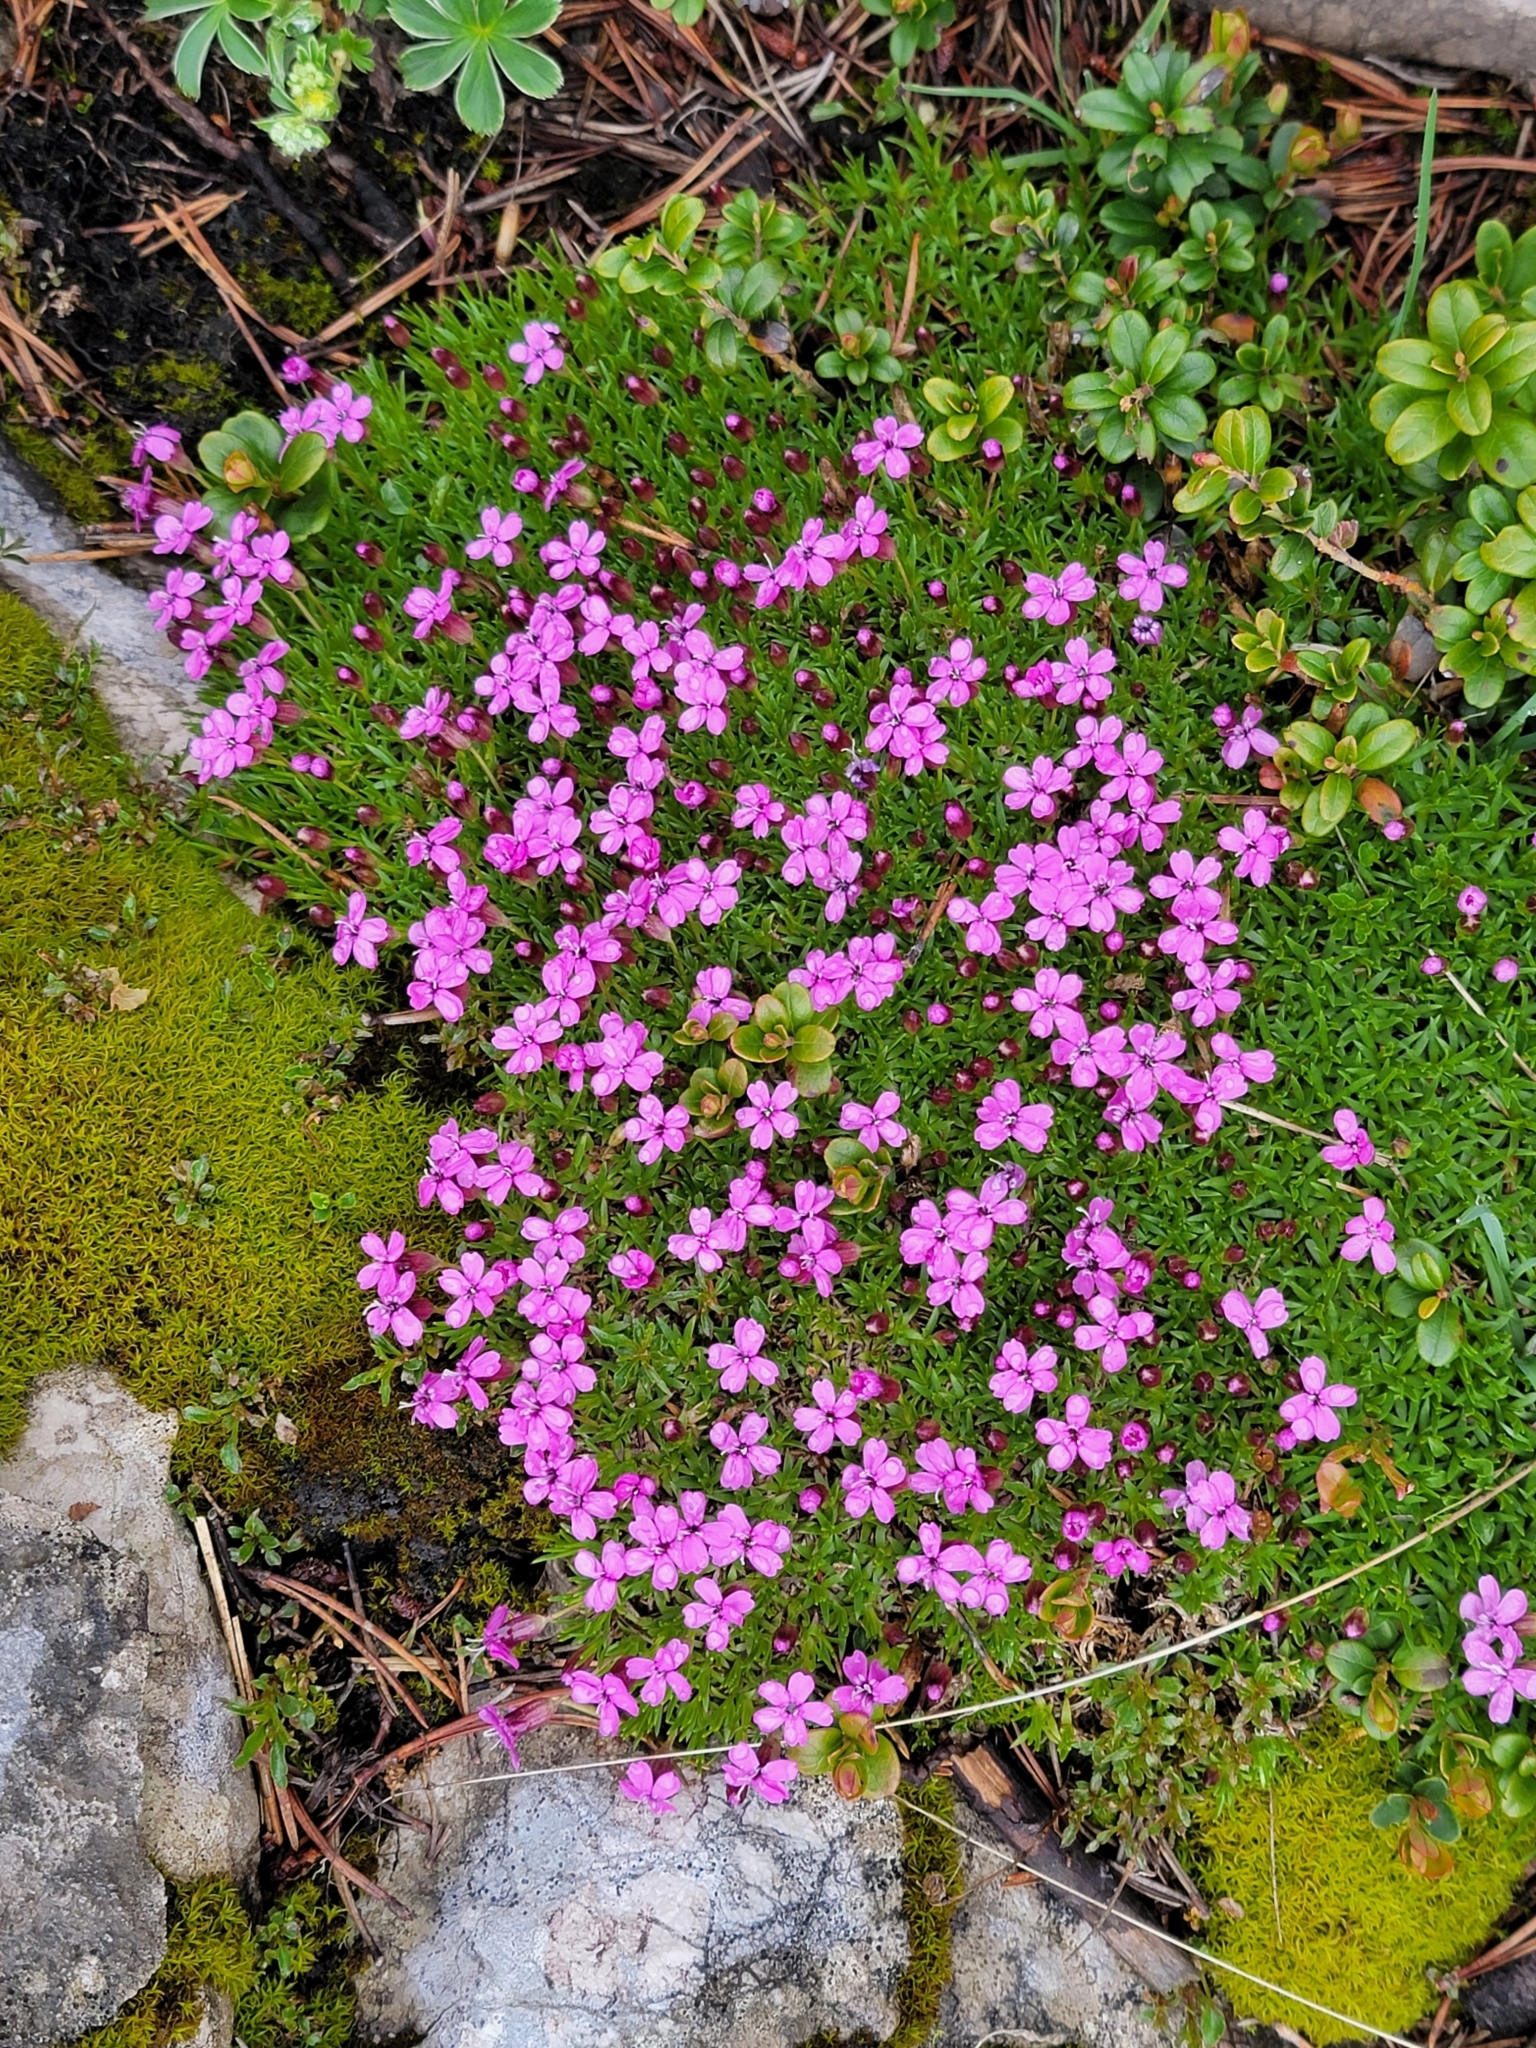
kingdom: Plantae
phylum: Tracheophyta
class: Magnoliopsida
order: Caryophyllales
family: Caryophyllaceae
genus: Silene
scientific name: Silene acaulis
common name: Moss campion
